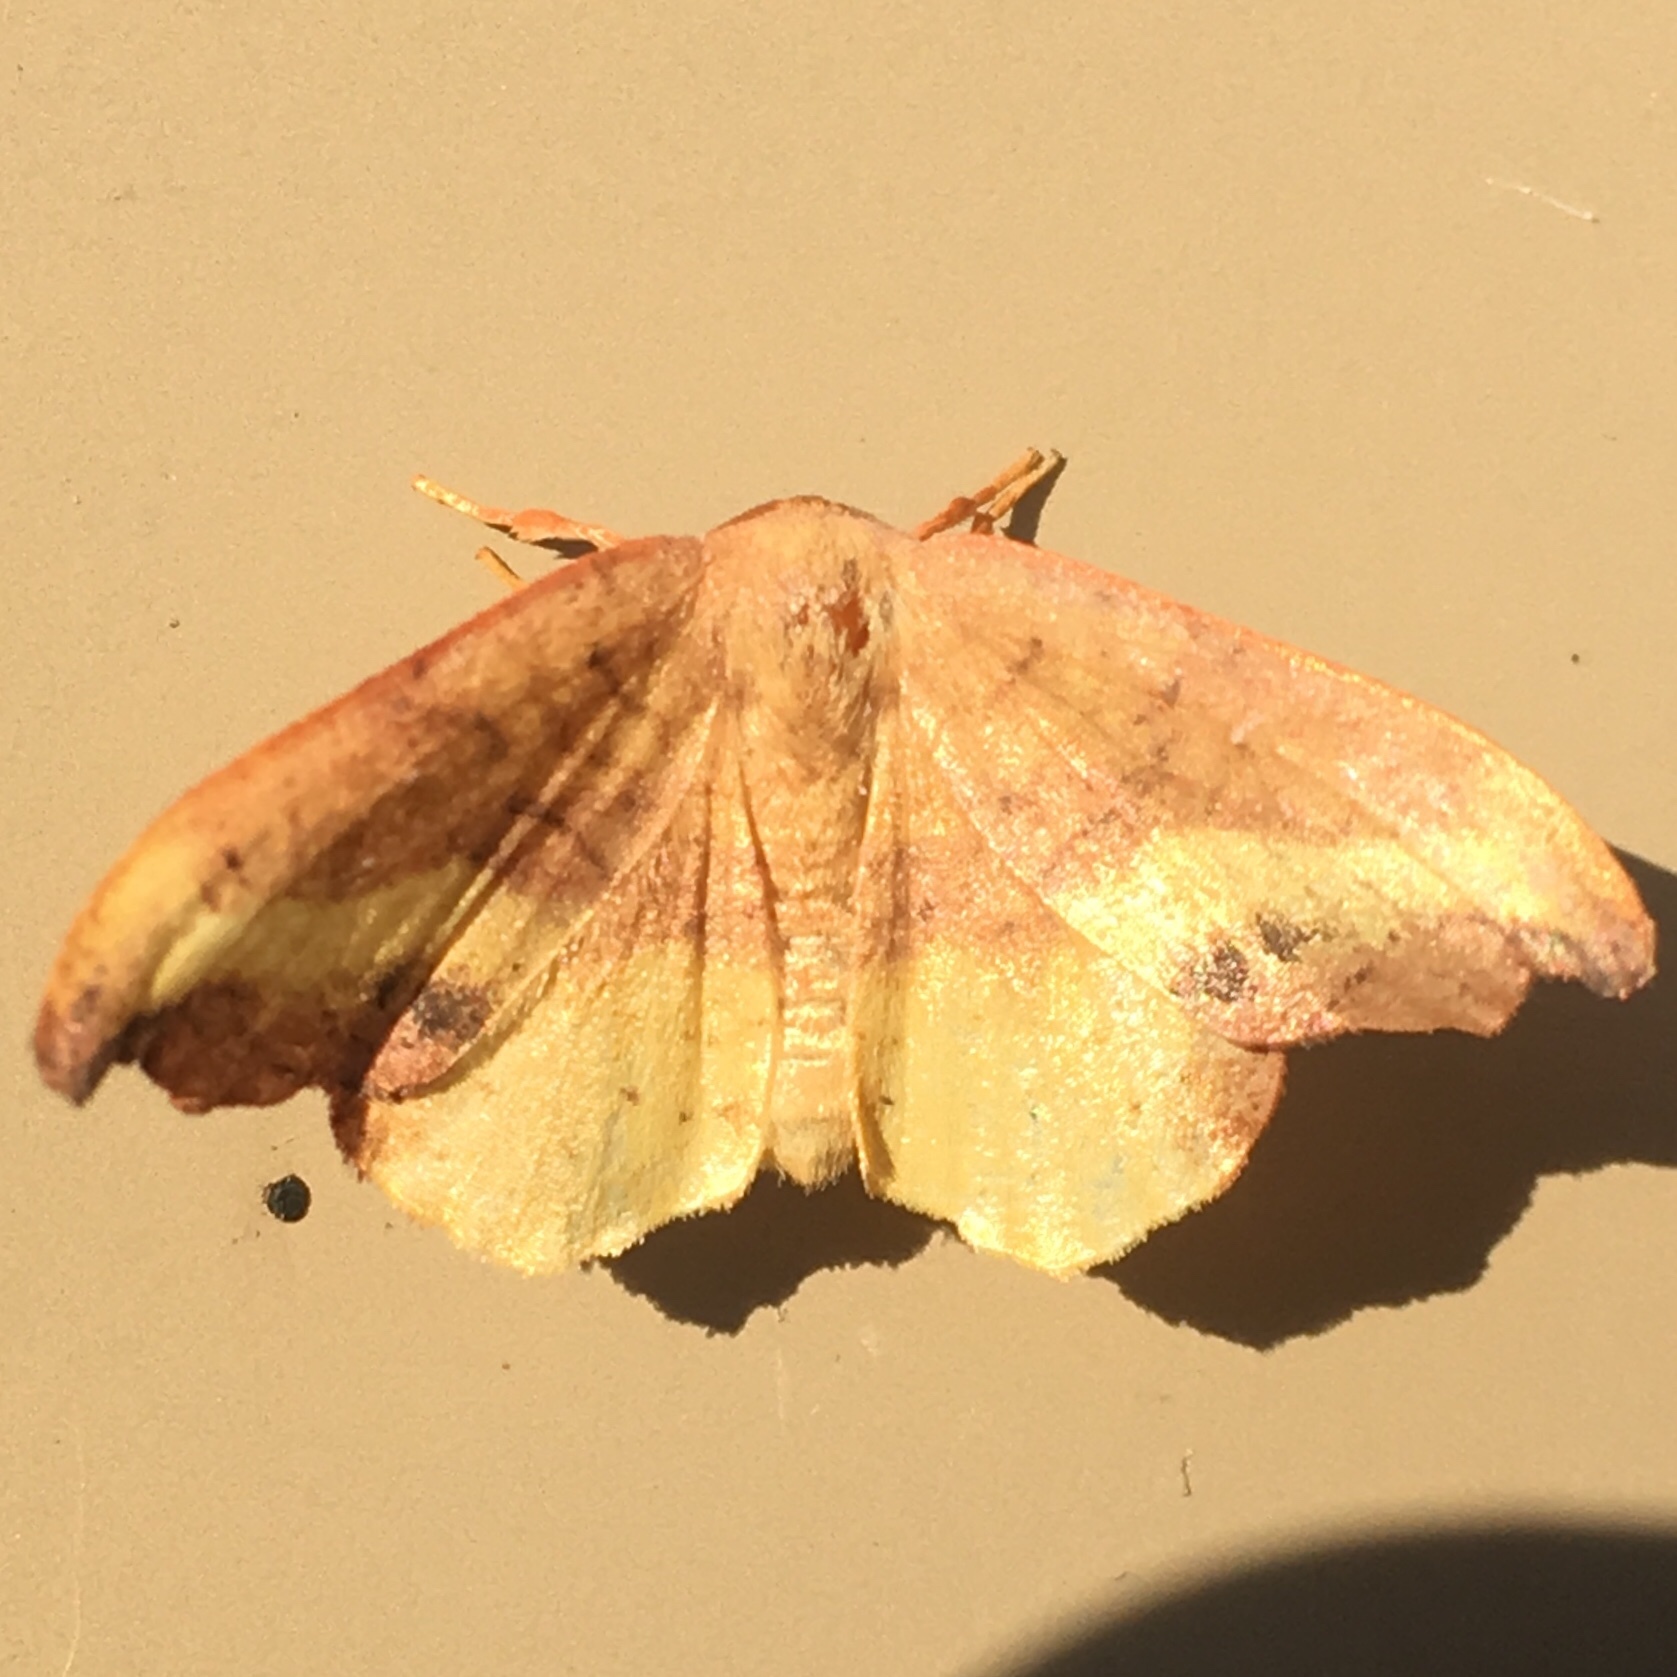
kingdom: Animalia
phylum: Arthropoda
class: Insecta
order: Lepidoptera
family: Drepanidae
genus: Oreta
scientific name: Oreta rosea
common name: Rose hooktip
